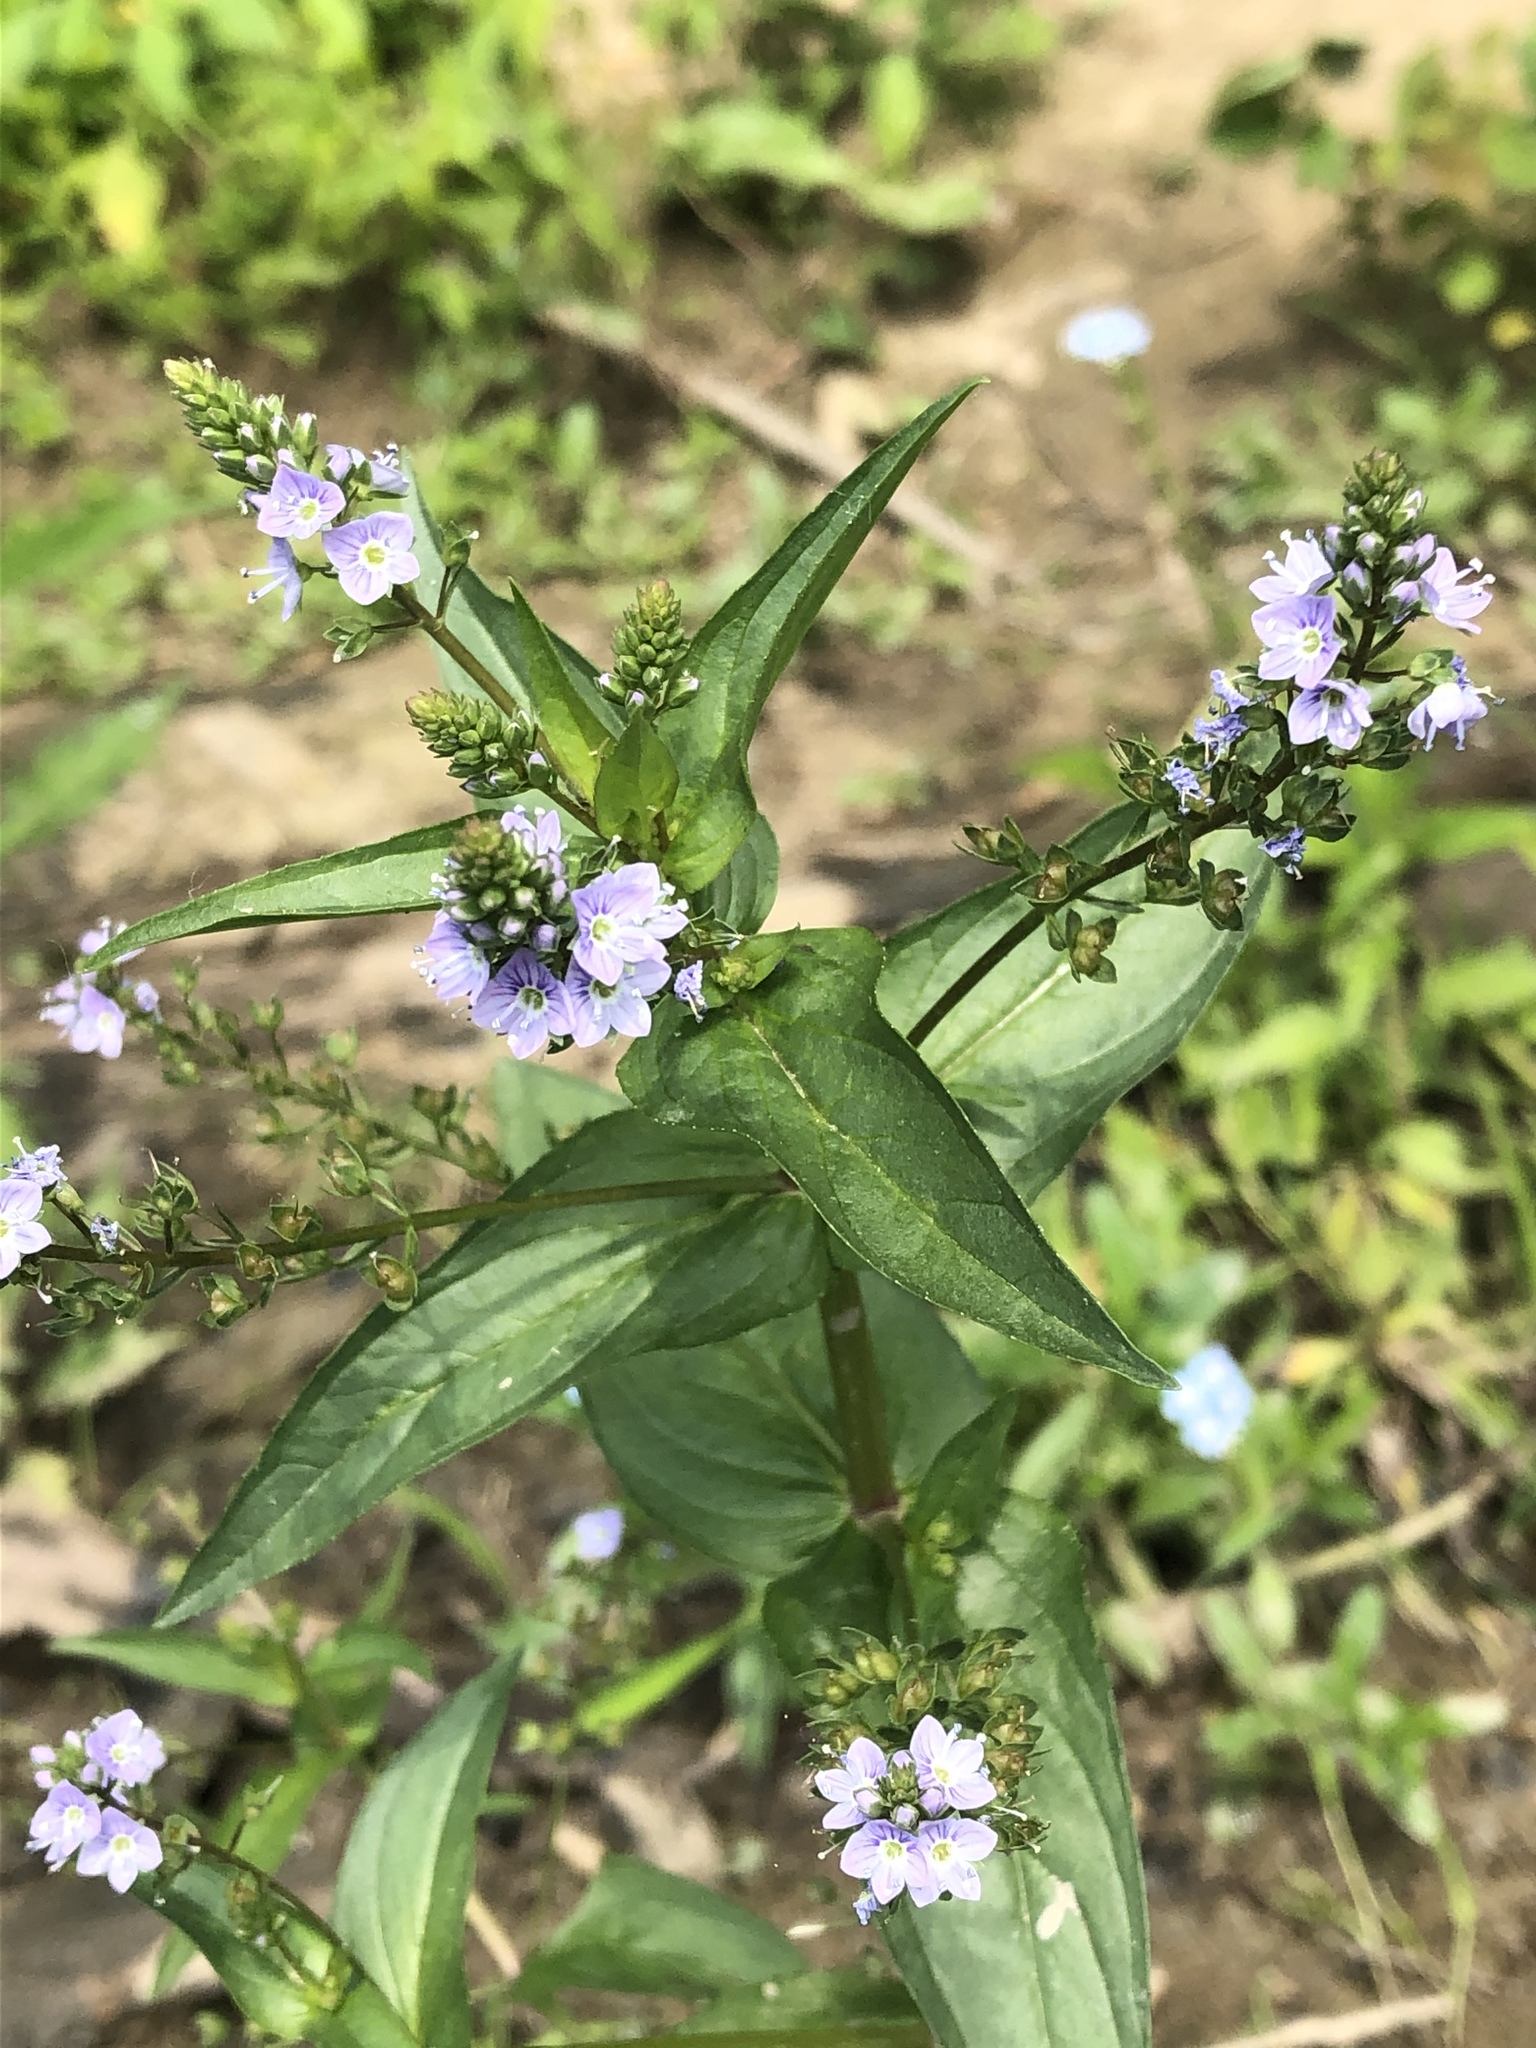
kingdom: Plantae
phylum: Tracheophyta
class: Magnoliopsida
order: Lamiales
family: Plantaginaceae
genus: Veronica
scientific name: Veronica anagallis-aquatica
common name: Water speedwell
